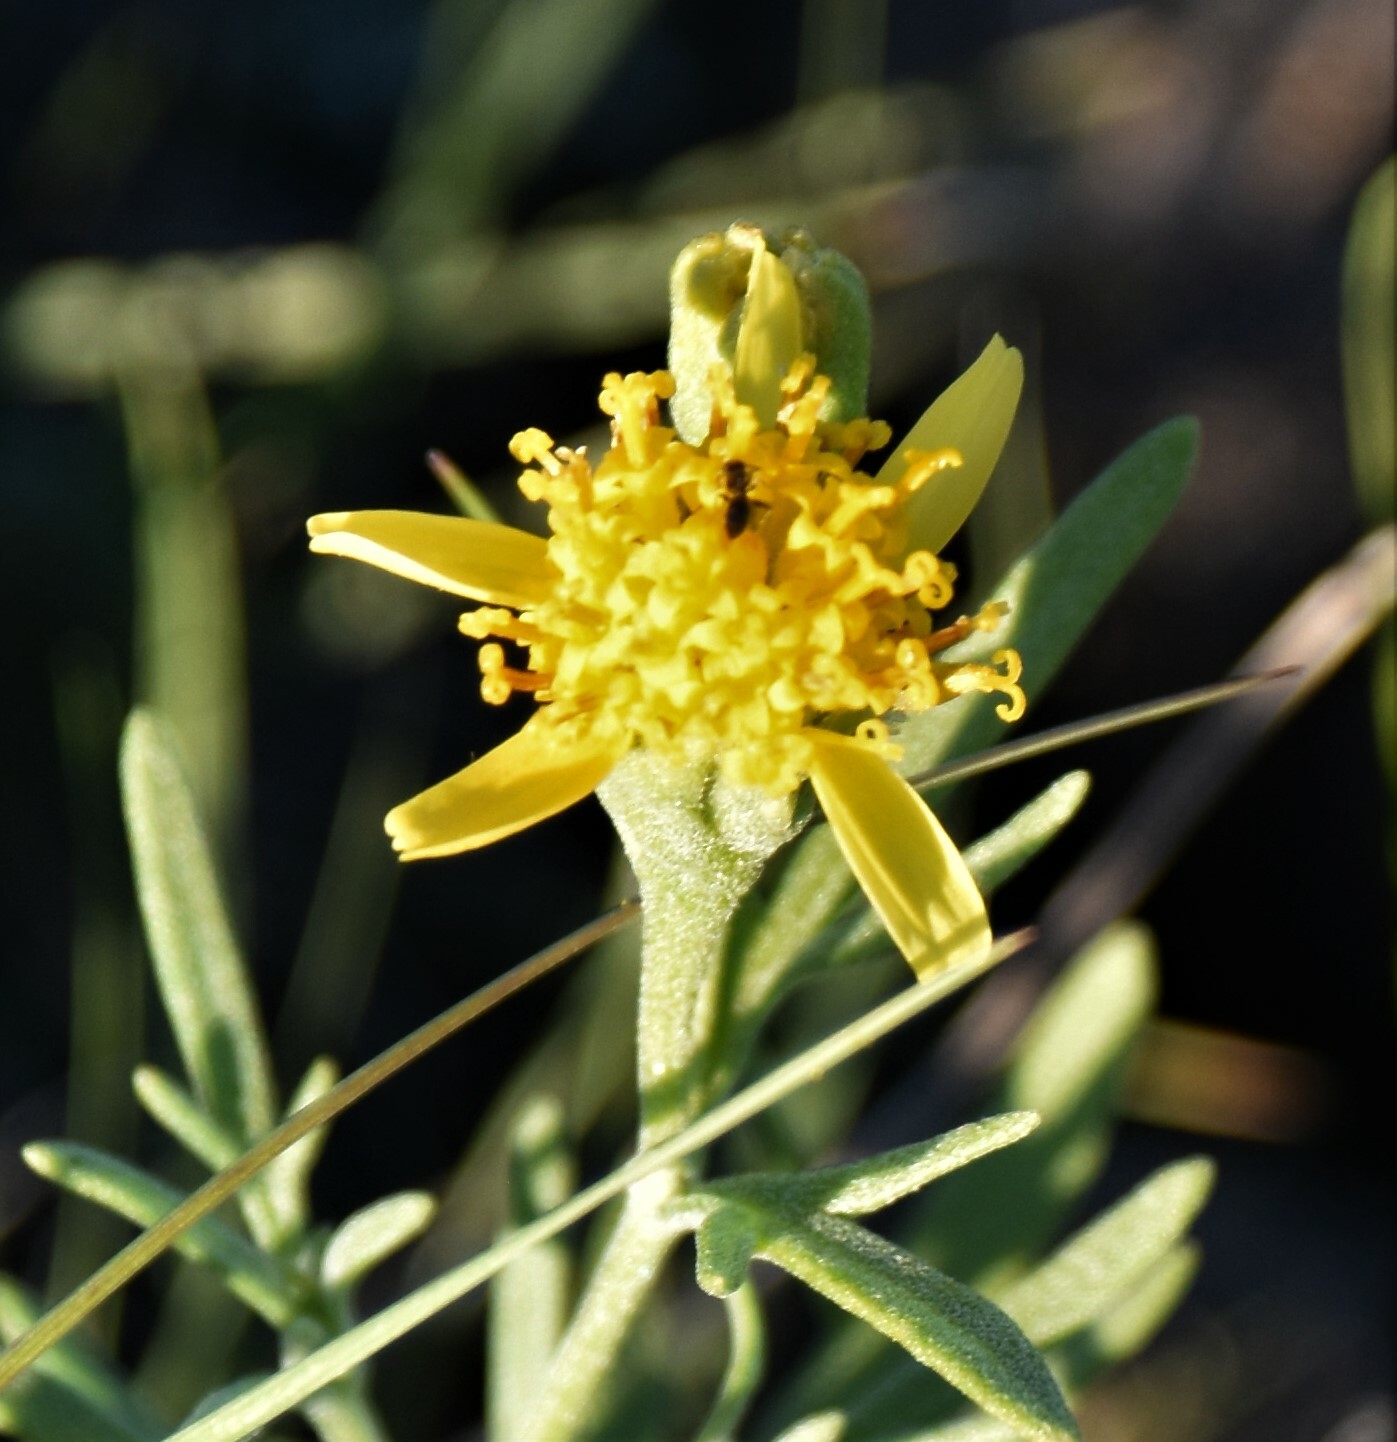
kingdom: Plantae
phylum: Tracheophyta
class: Magnoliopsida
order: Asterales
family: Asteraceae
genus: Hymenoxys
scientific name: Hymenoxys richardsonii
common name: Pingue rubberweed
